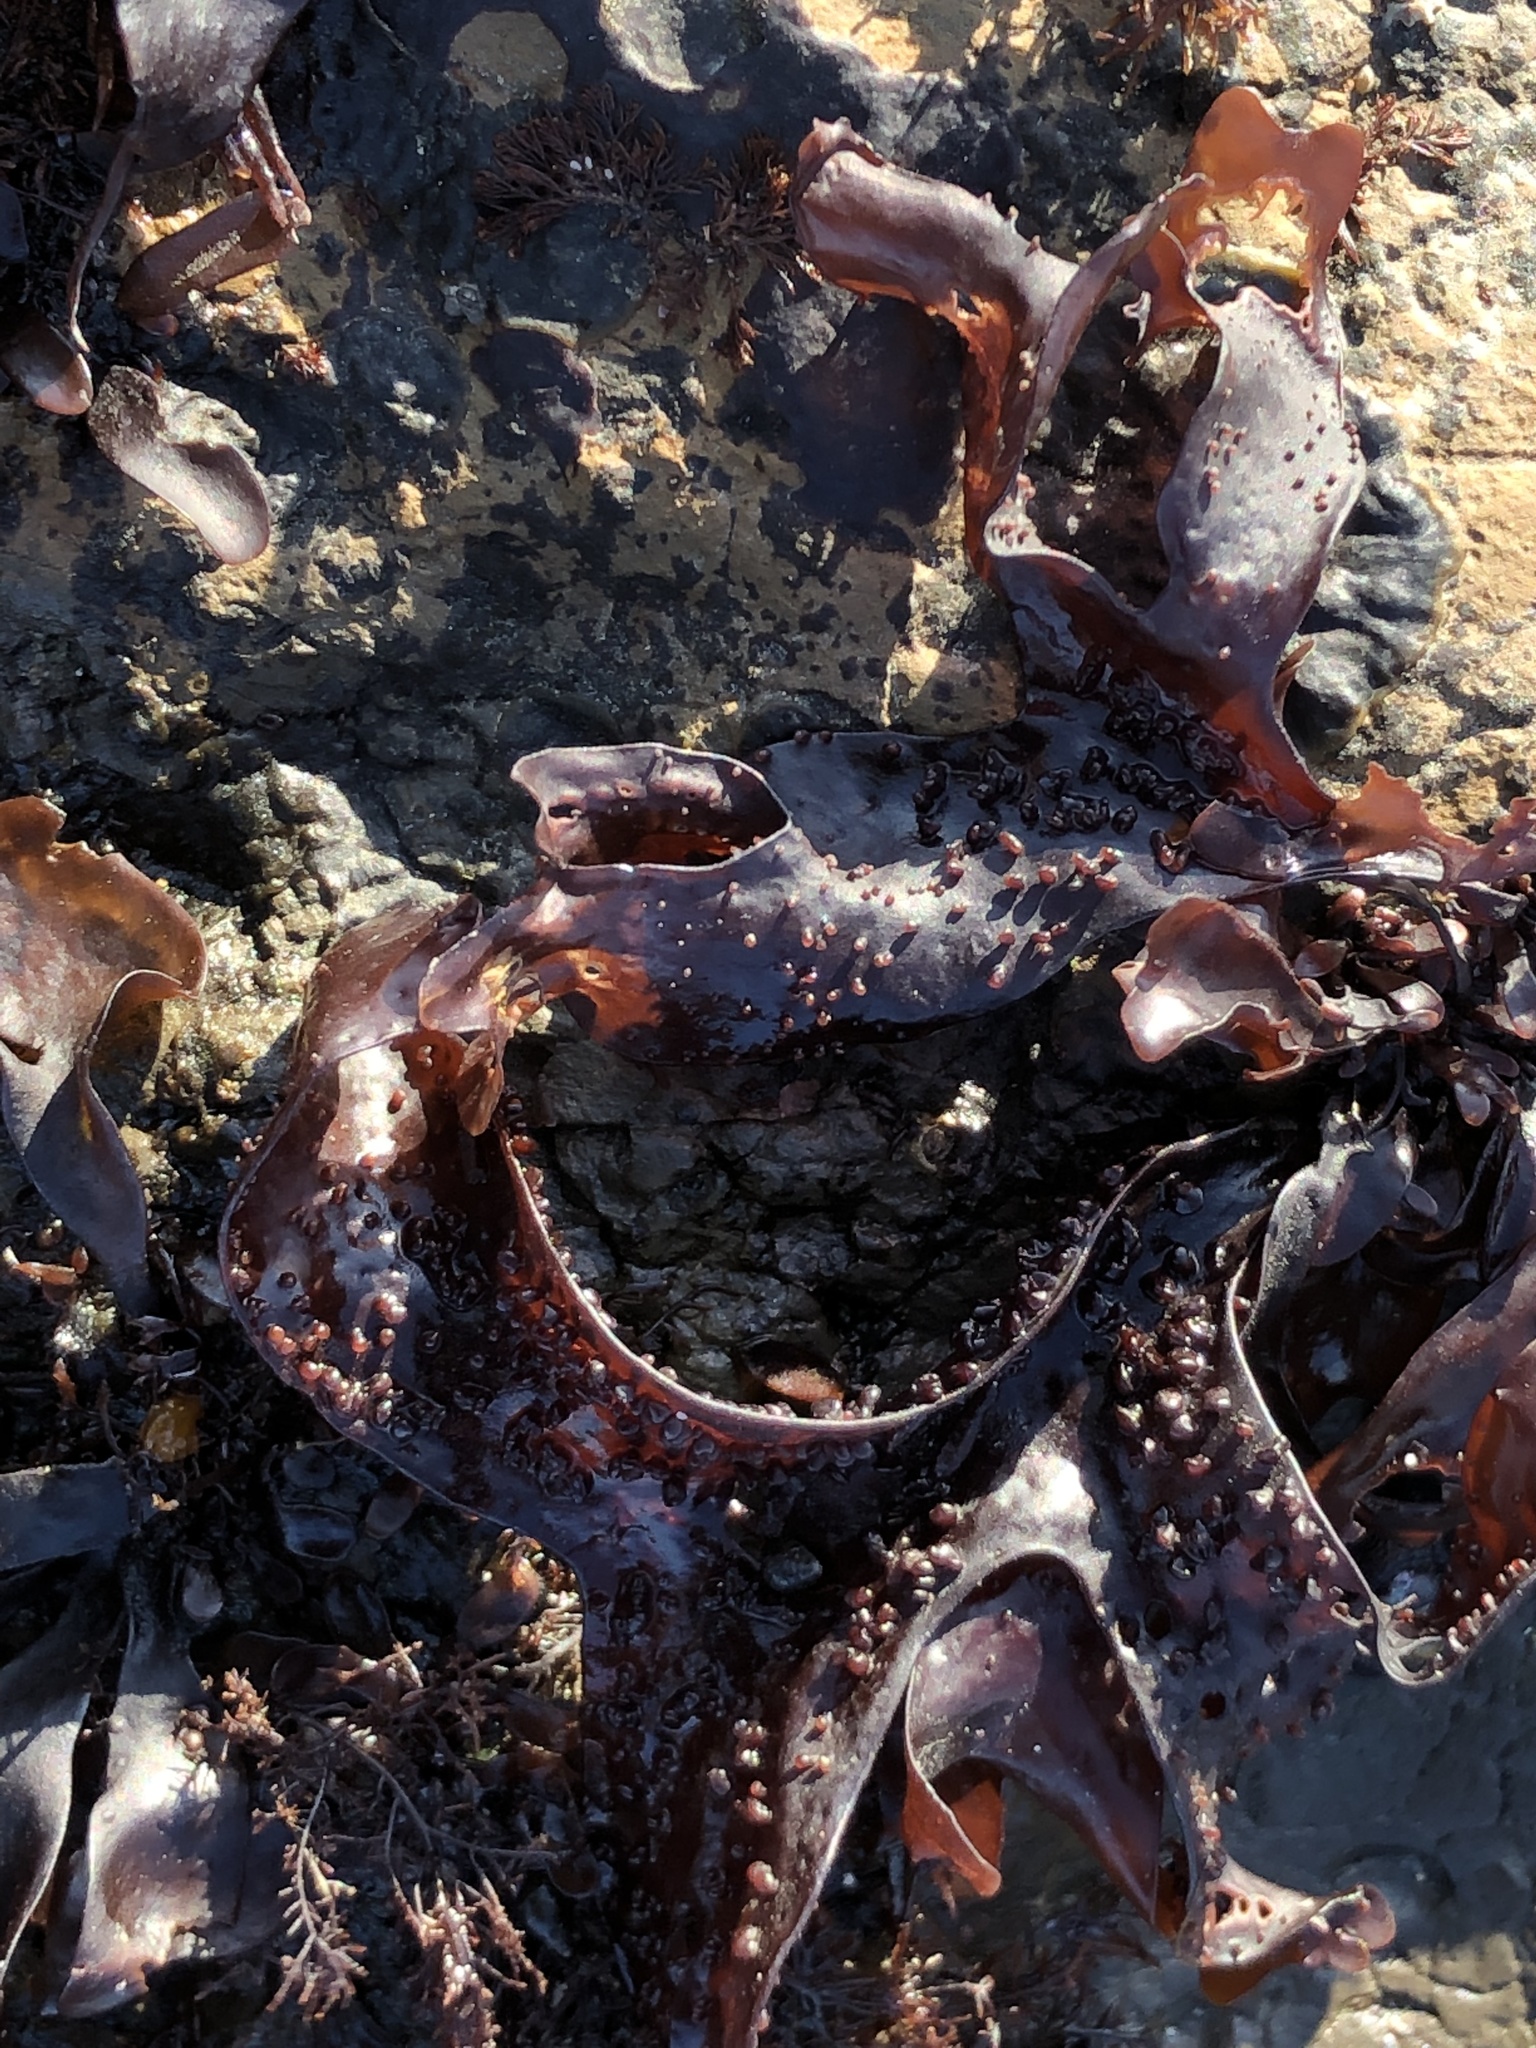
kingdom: Plantae
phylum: Rhodophyta
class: Florideophyceae
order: Gigartinales
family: Phyllophoraceae
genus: Mastocarpus
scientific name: Mastocarpus papillatus
